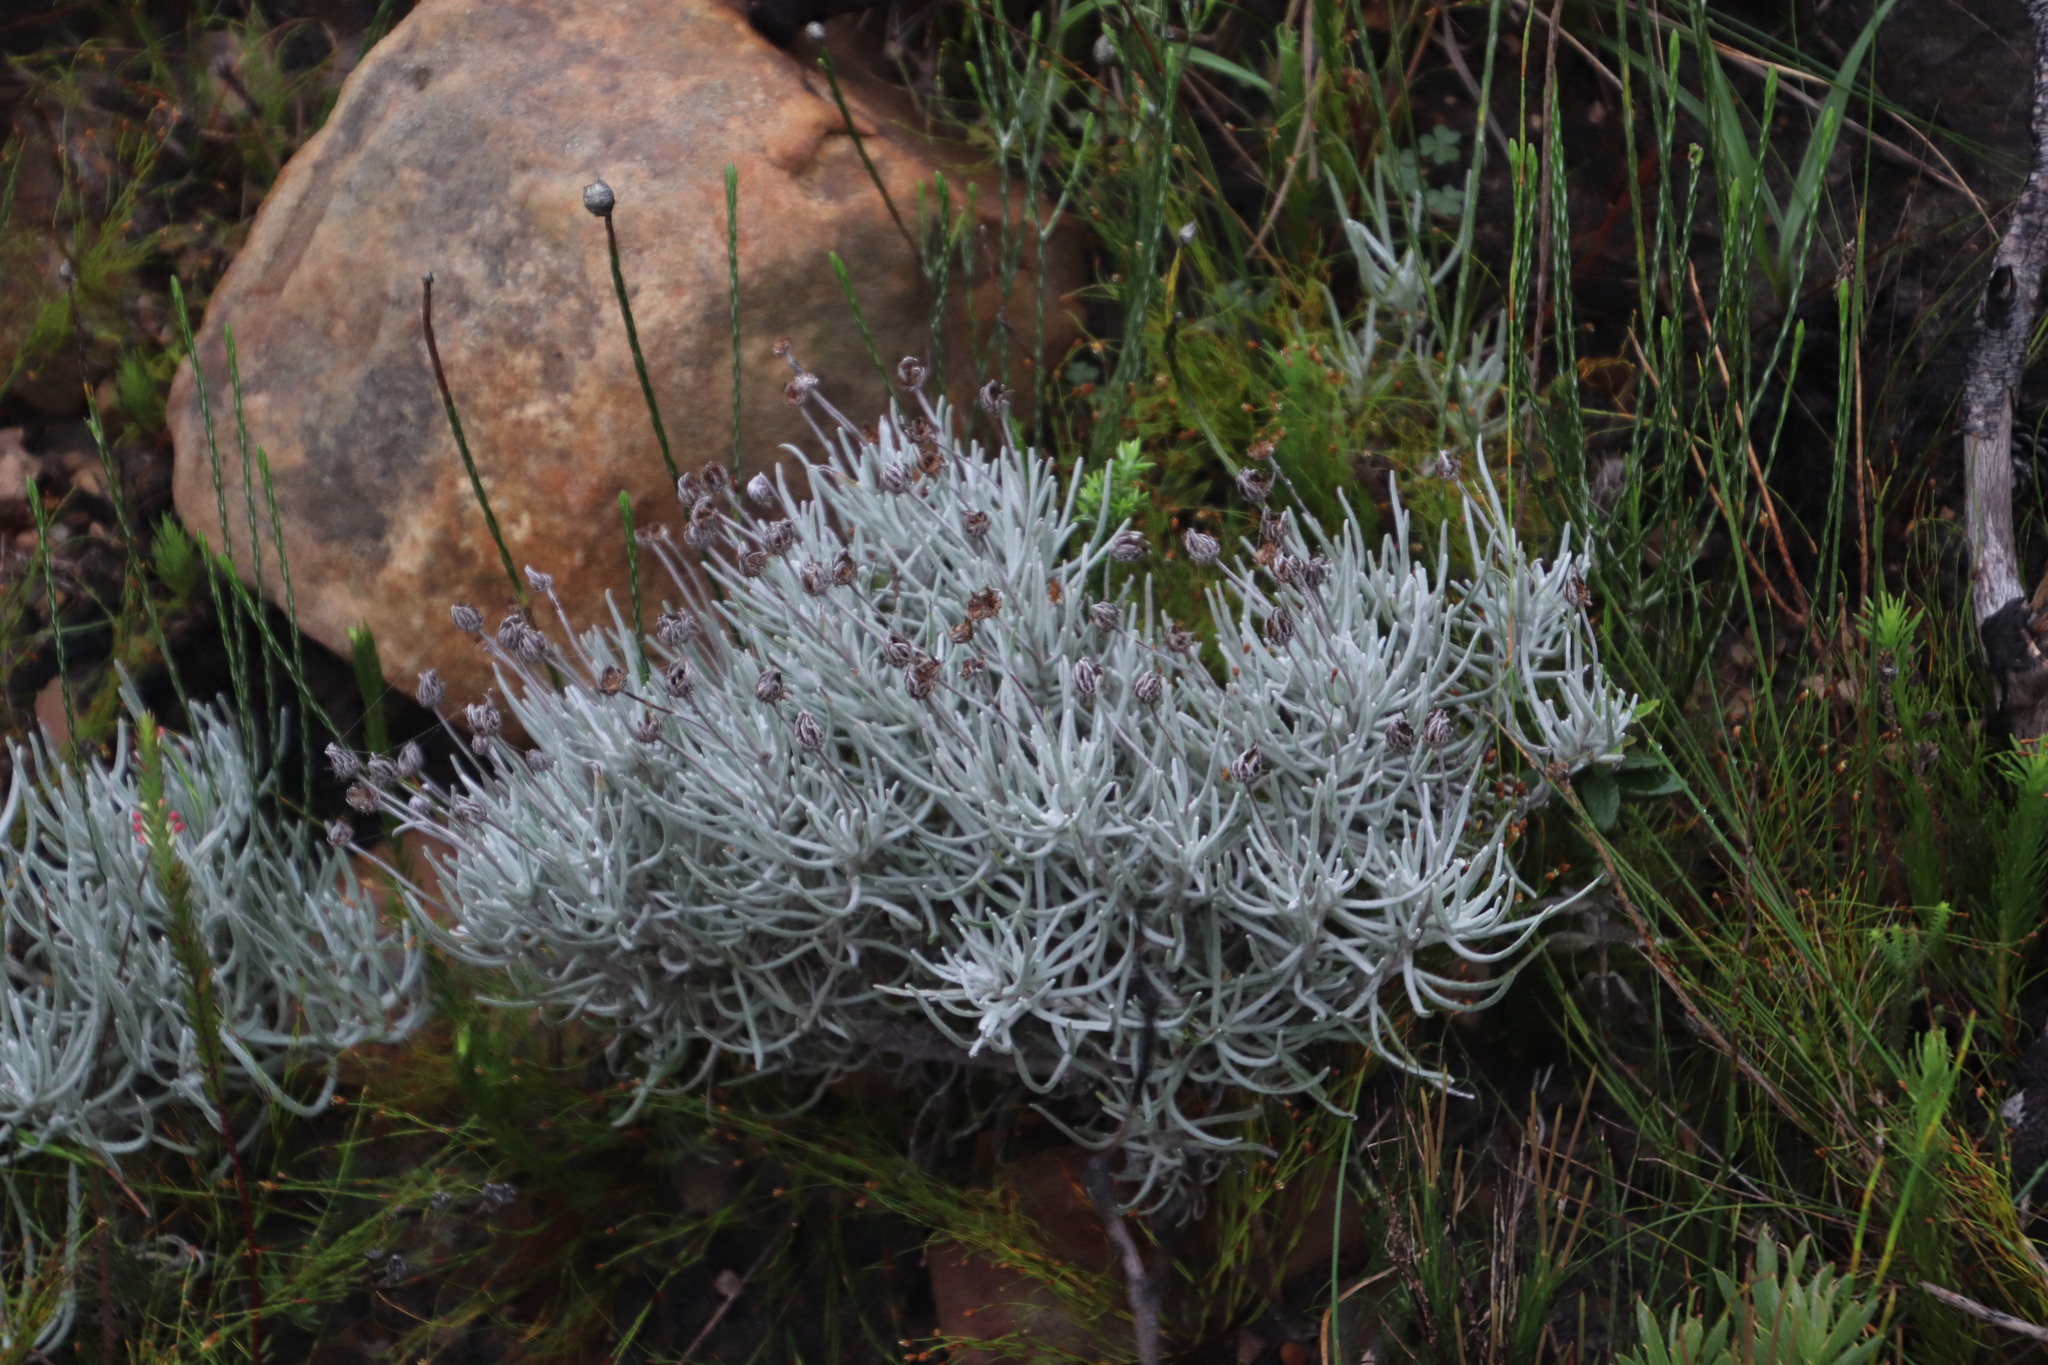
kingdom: Plantae
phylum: Tracheophyta
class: Magnoliopsida
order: Asterales
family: Asteraceae
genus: Syncarpha
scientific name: Syncarpha gnaphaloides
